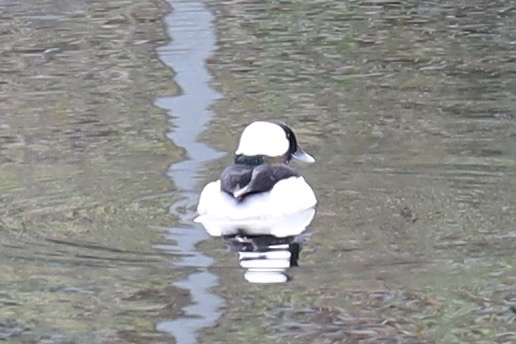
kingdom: Animalia
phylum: Chordata
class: Aves
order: Anseriformes
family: Anatidae
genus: Bucephala
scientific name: Bucephala albeola
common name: Bufflehead
